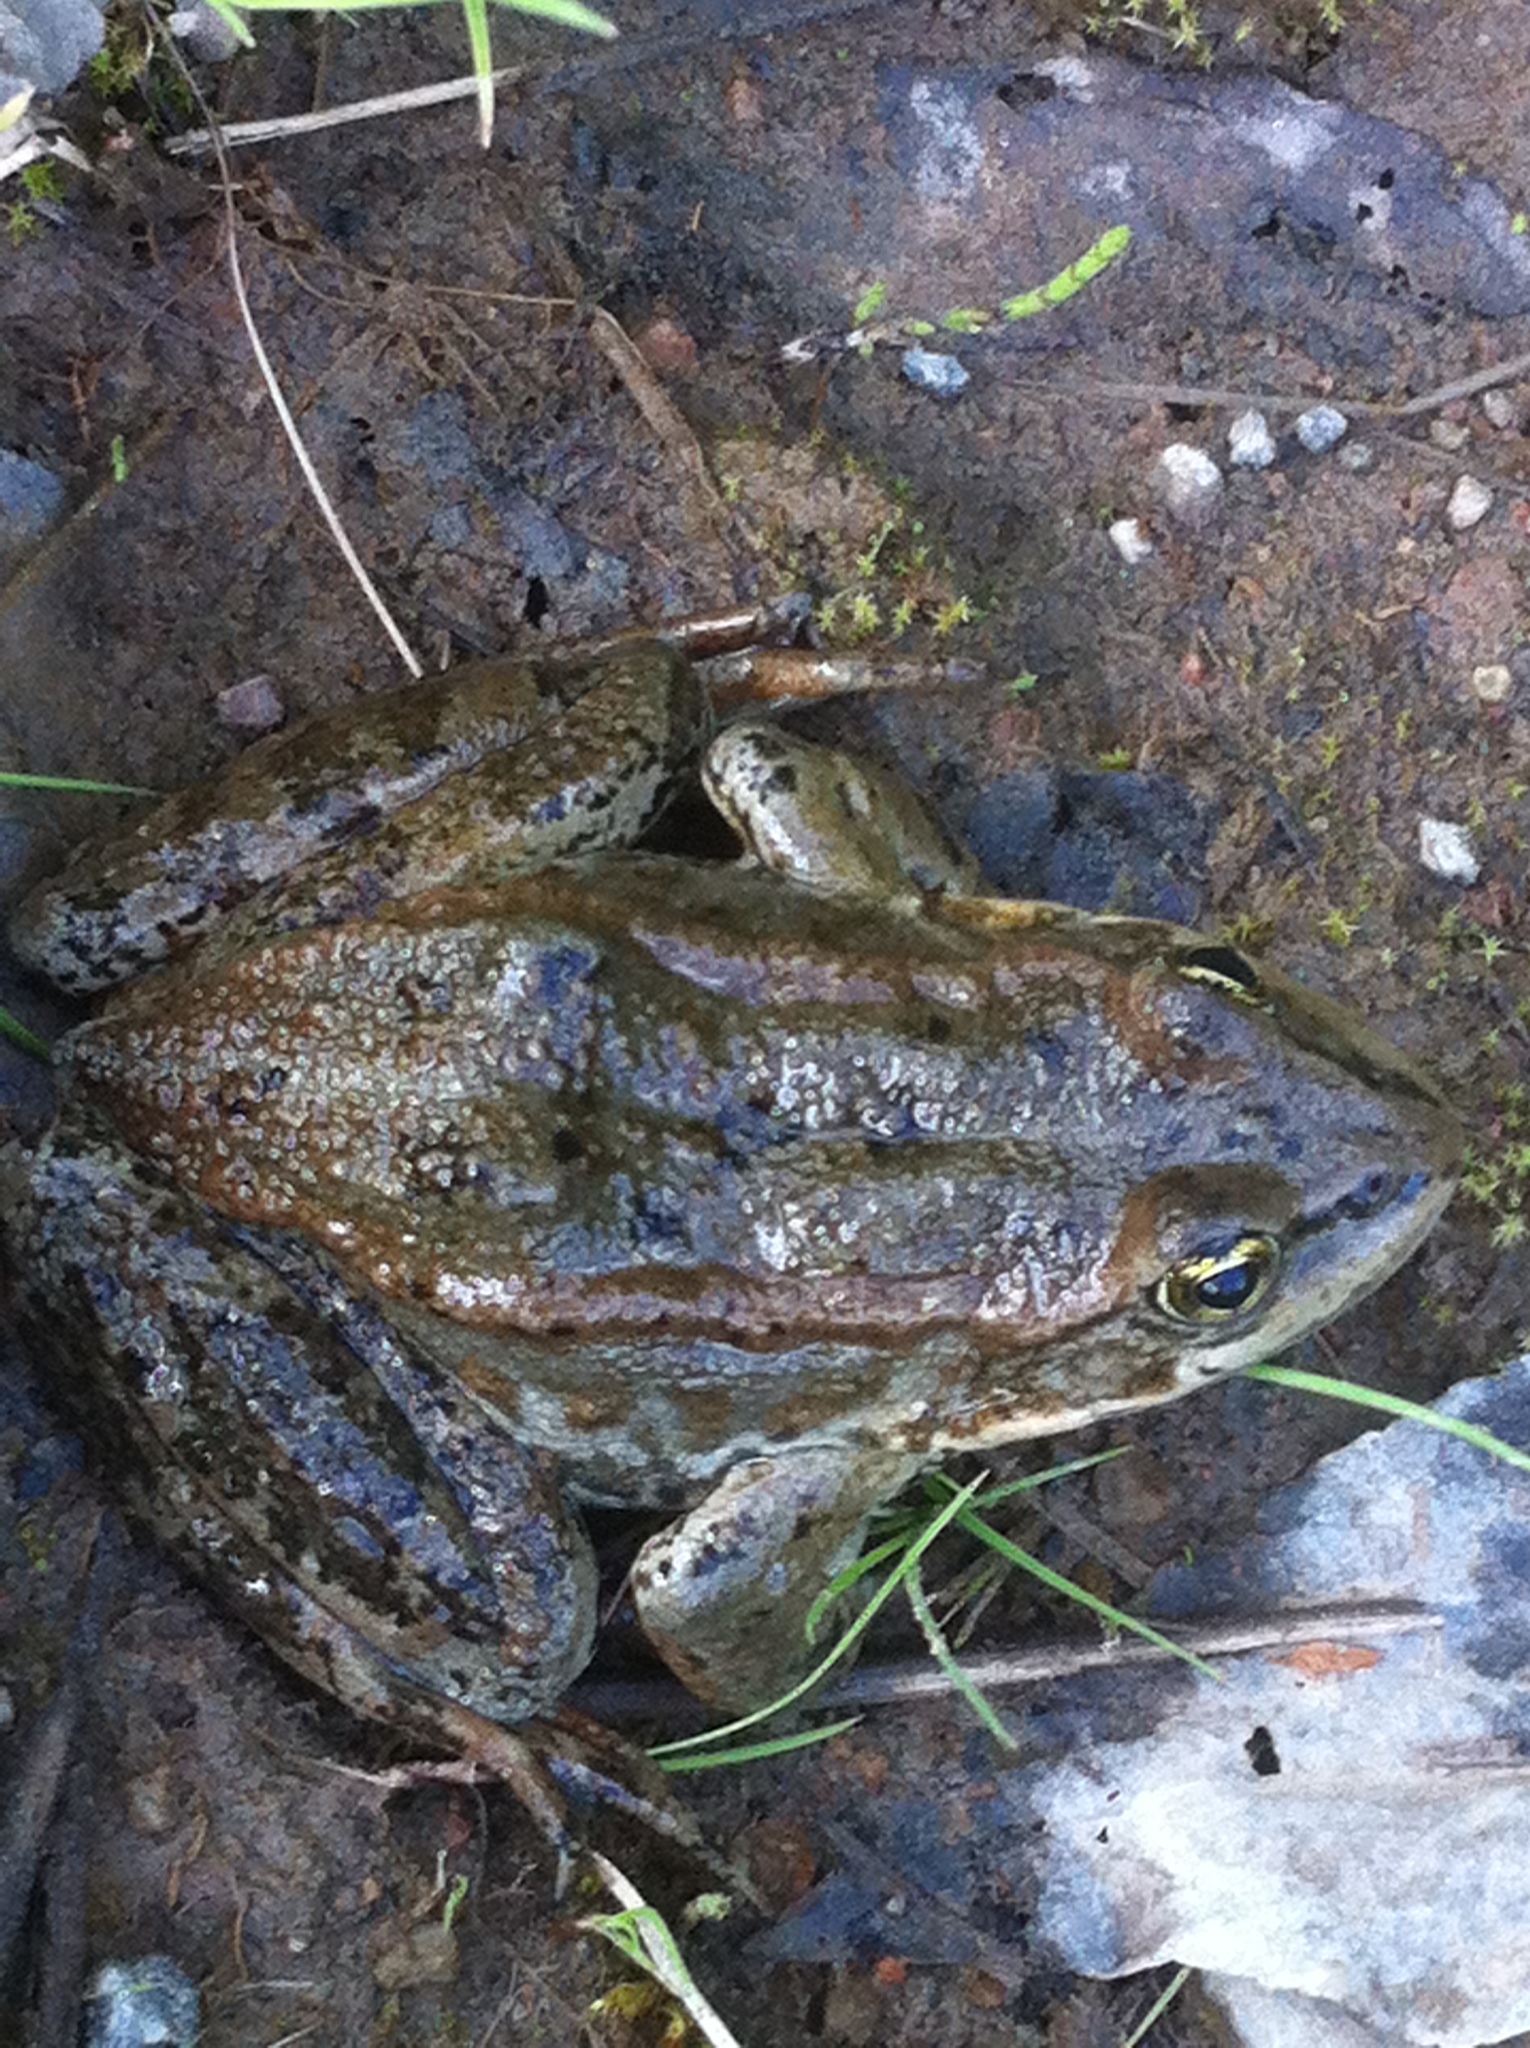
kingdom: Animalia
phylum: Chordata
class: Amphibia
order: Anura
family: Ranidae
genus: Rana
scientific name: Rana luteiventris
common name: Columbia spotted frog
